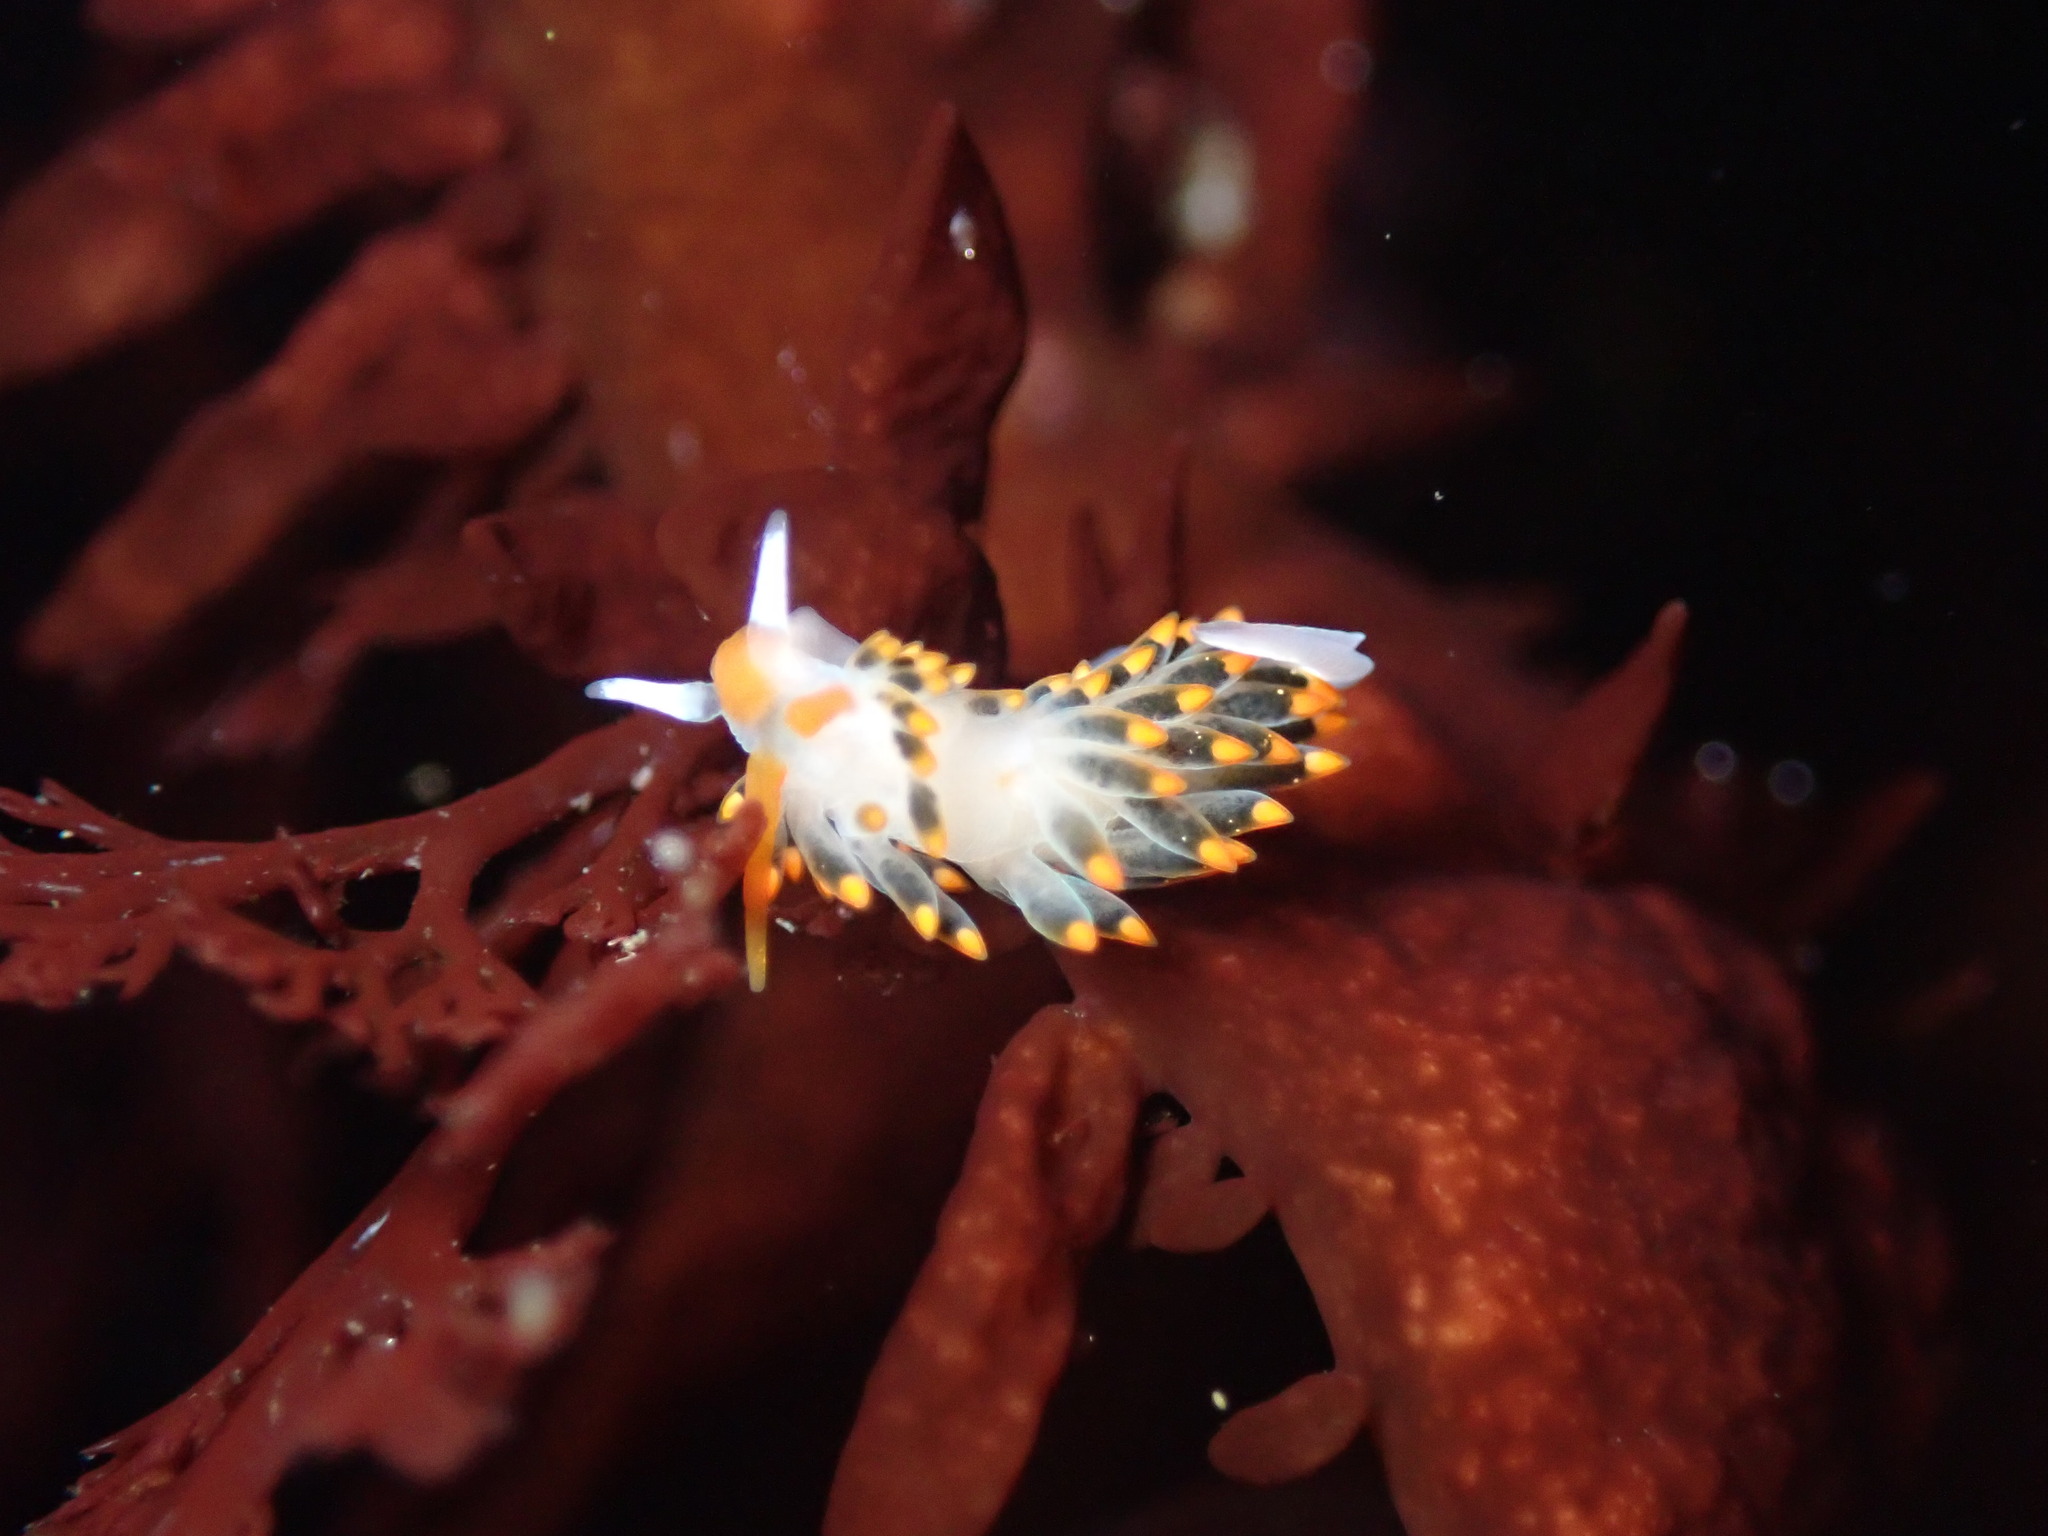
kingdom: Animalia
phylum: Mollusca
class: Gastropoda
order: Nudibranchia
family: Trinchesiidae
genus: Diaphoreolis
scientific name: Diaphoreolis lagunae
